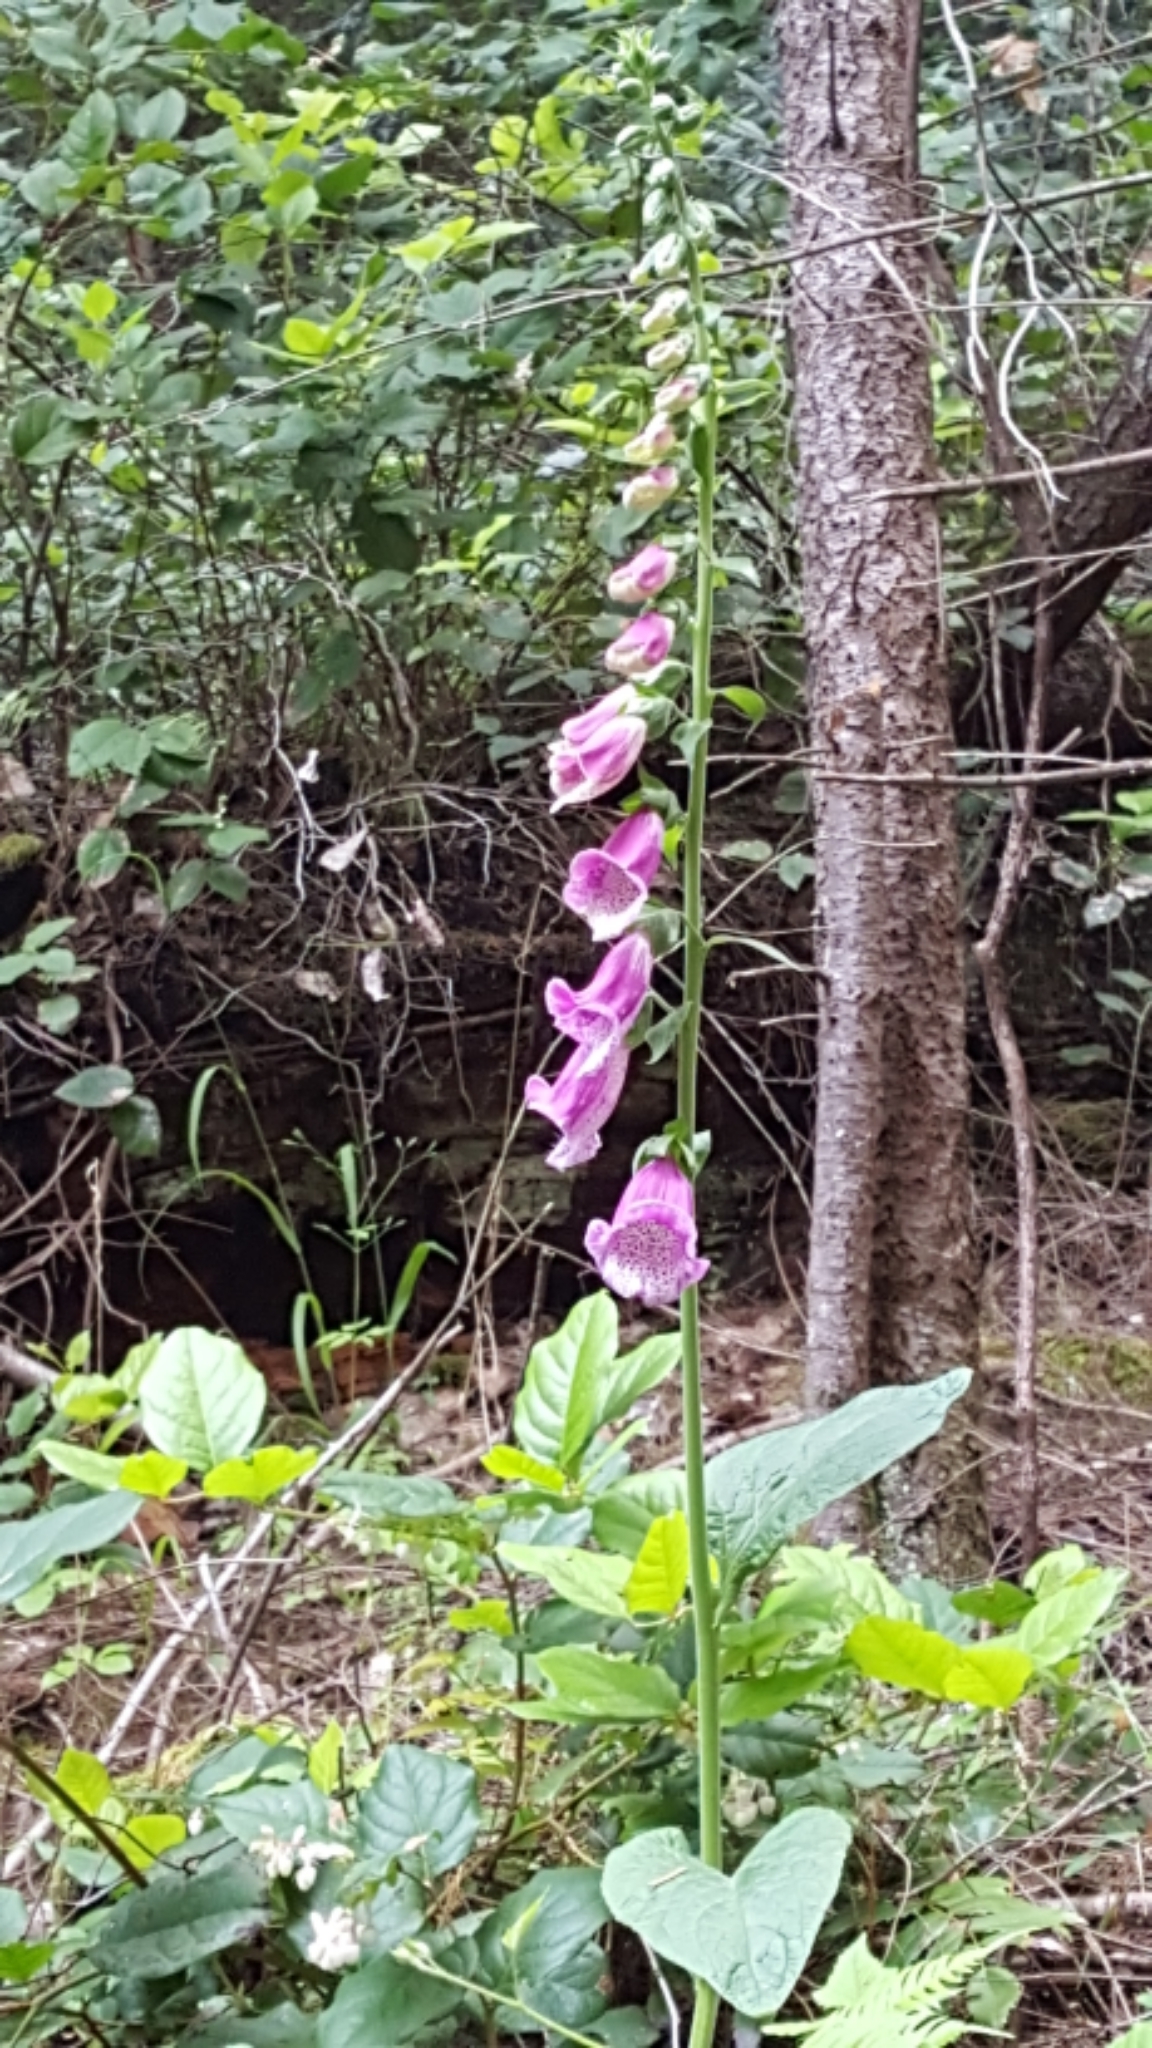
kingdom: Plantae
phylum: Tracheophyta
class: Magnoliopsida
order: Lamiales
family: Plantaginaceae
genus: Digitalis
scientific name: Digitalis purpurea
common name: Foxglove
